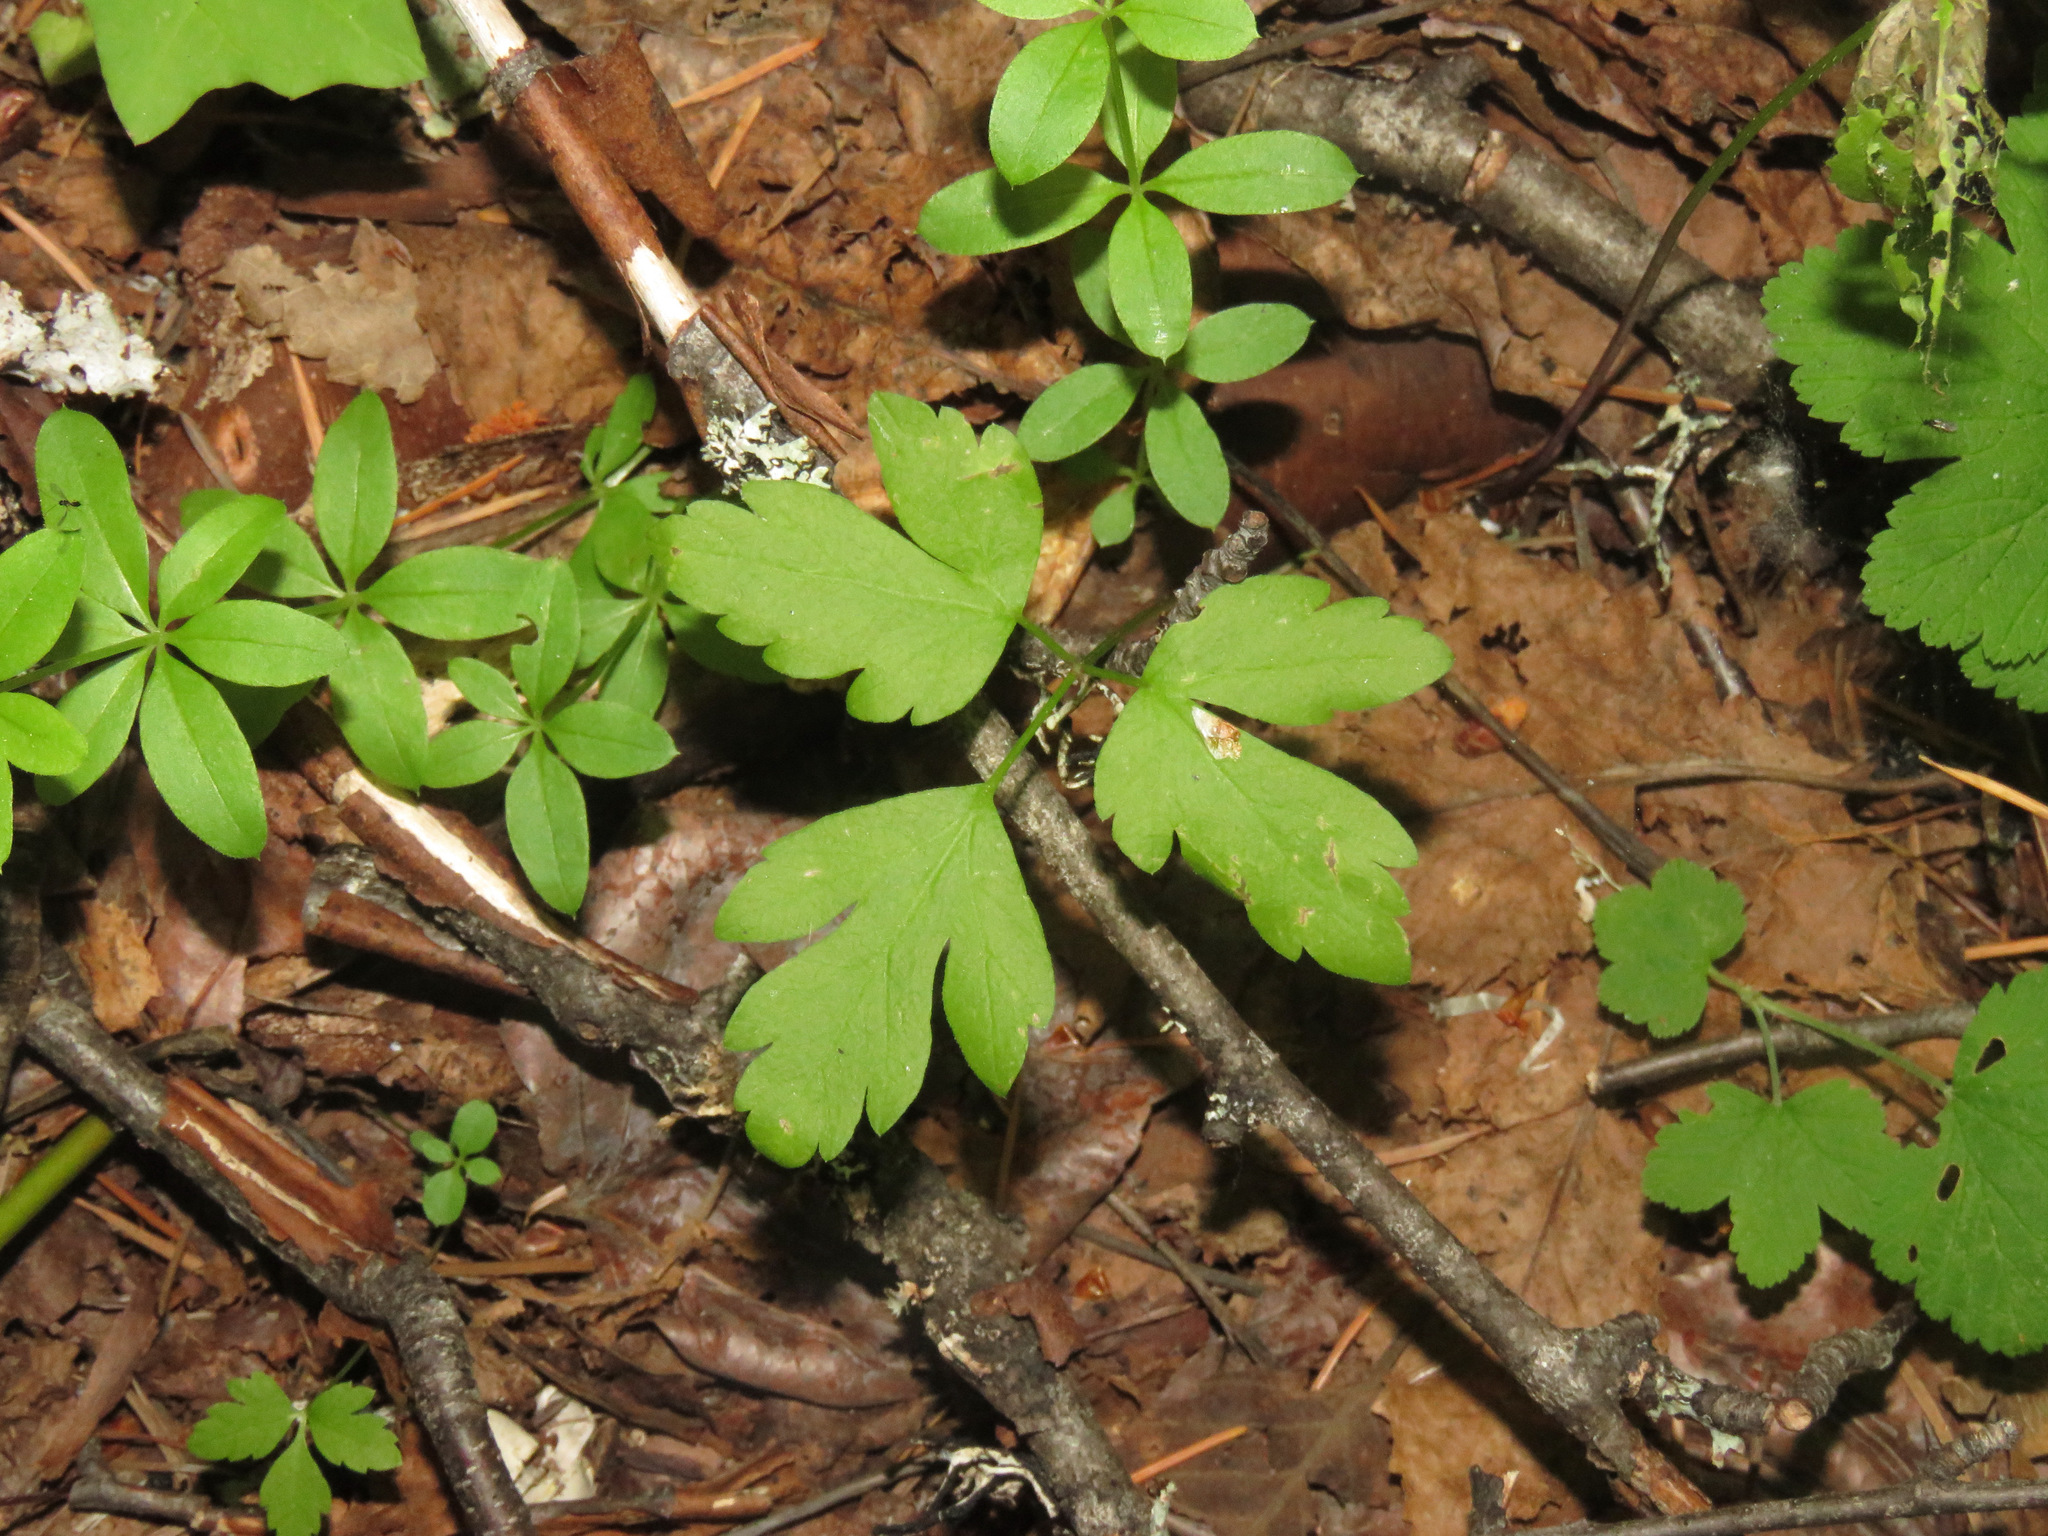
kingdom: Plantae
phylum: Tracheophyta
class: Magnoliopsida
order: Ranunculales
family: Ranunculaceae
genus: Anemone
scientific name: Anemone
